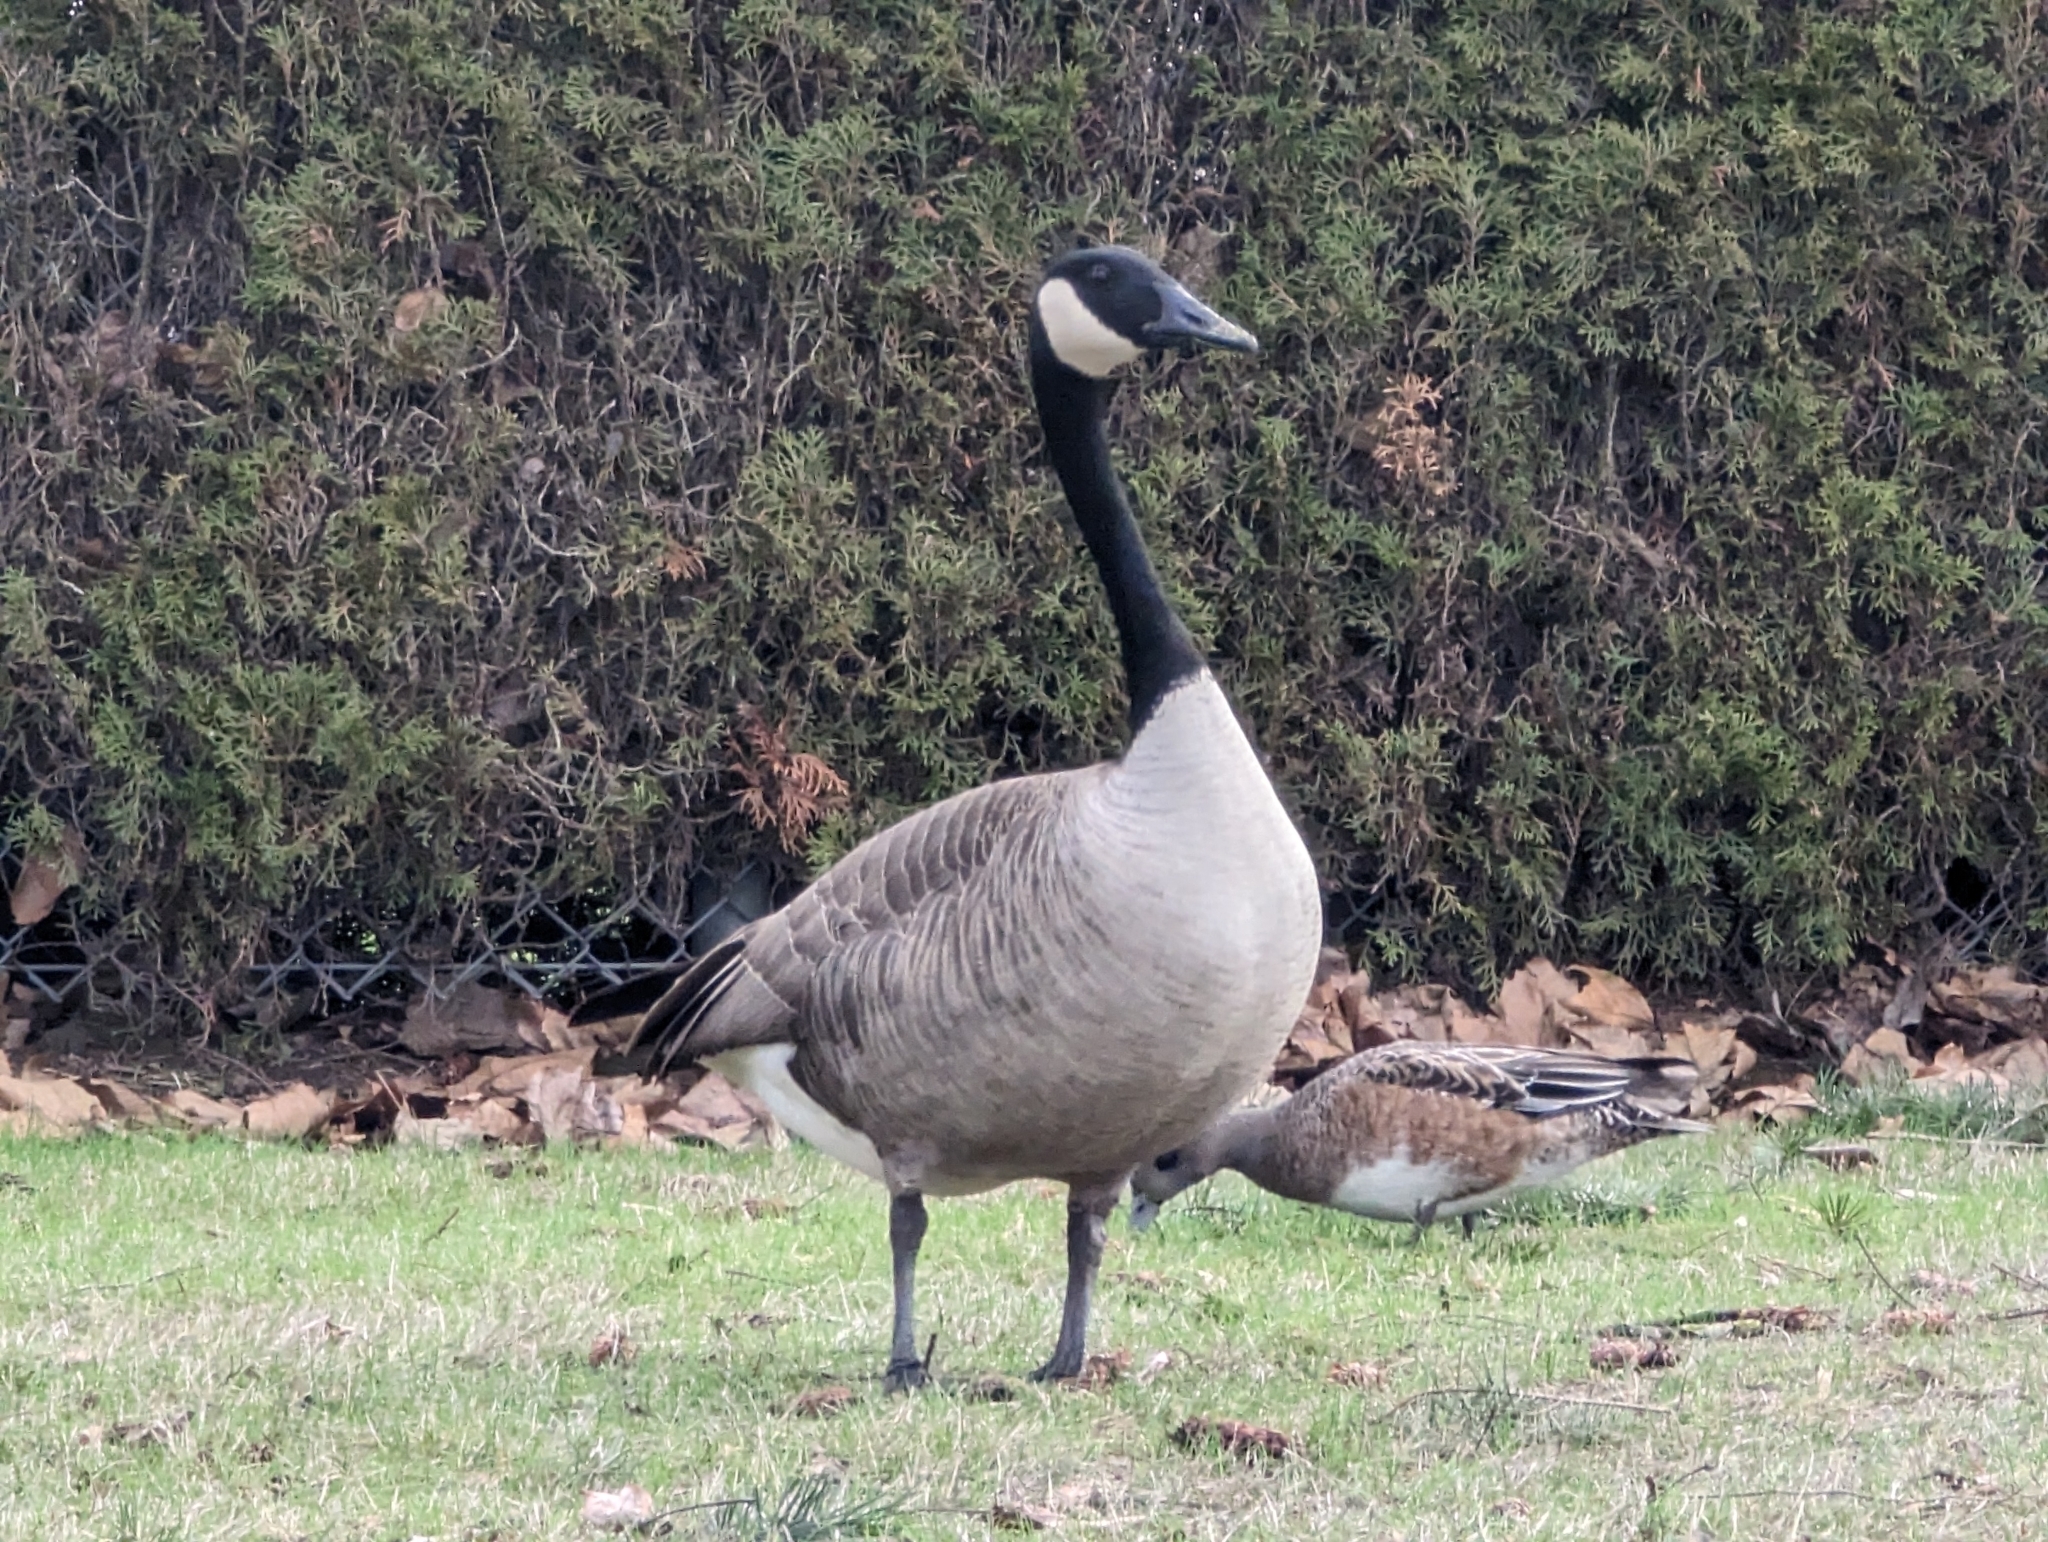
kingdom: Animalia
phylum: Chordata
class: Aves
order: Anseriformes
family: Anatidae
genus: Branta
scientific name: Branta canadensis
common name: Canada goose
